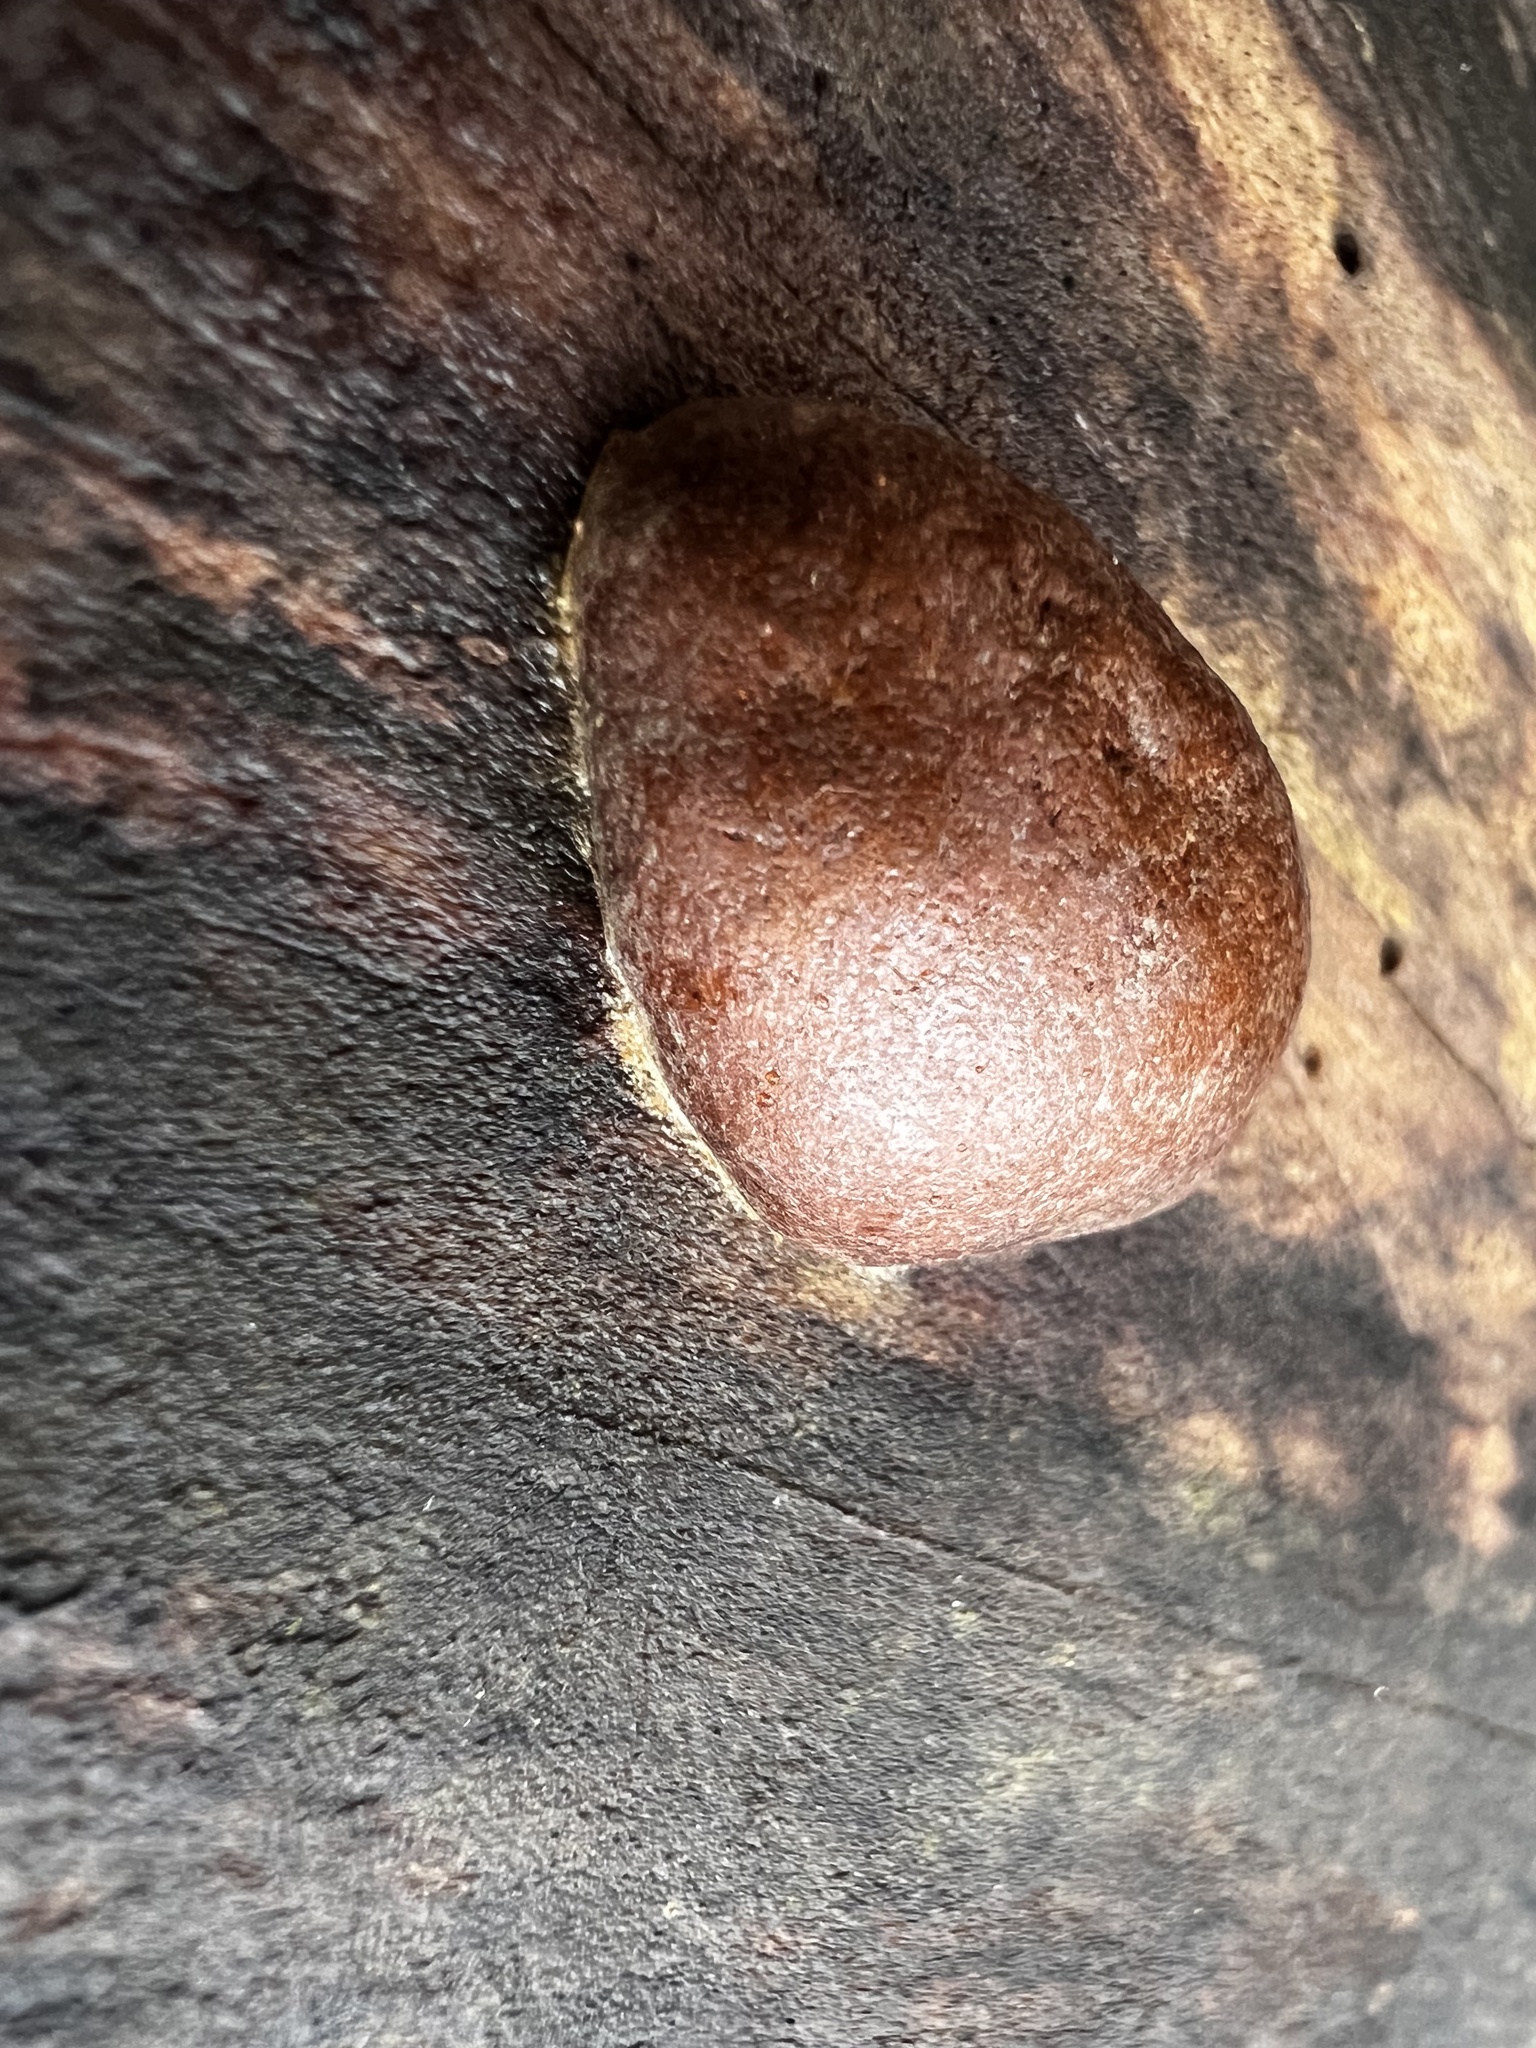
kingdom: Protozoa
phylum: Mycetozoa
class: Myxomycetes
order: Cribrariales
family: Tubiferaceae
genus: Reticularia
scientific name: Reticularia splendens
